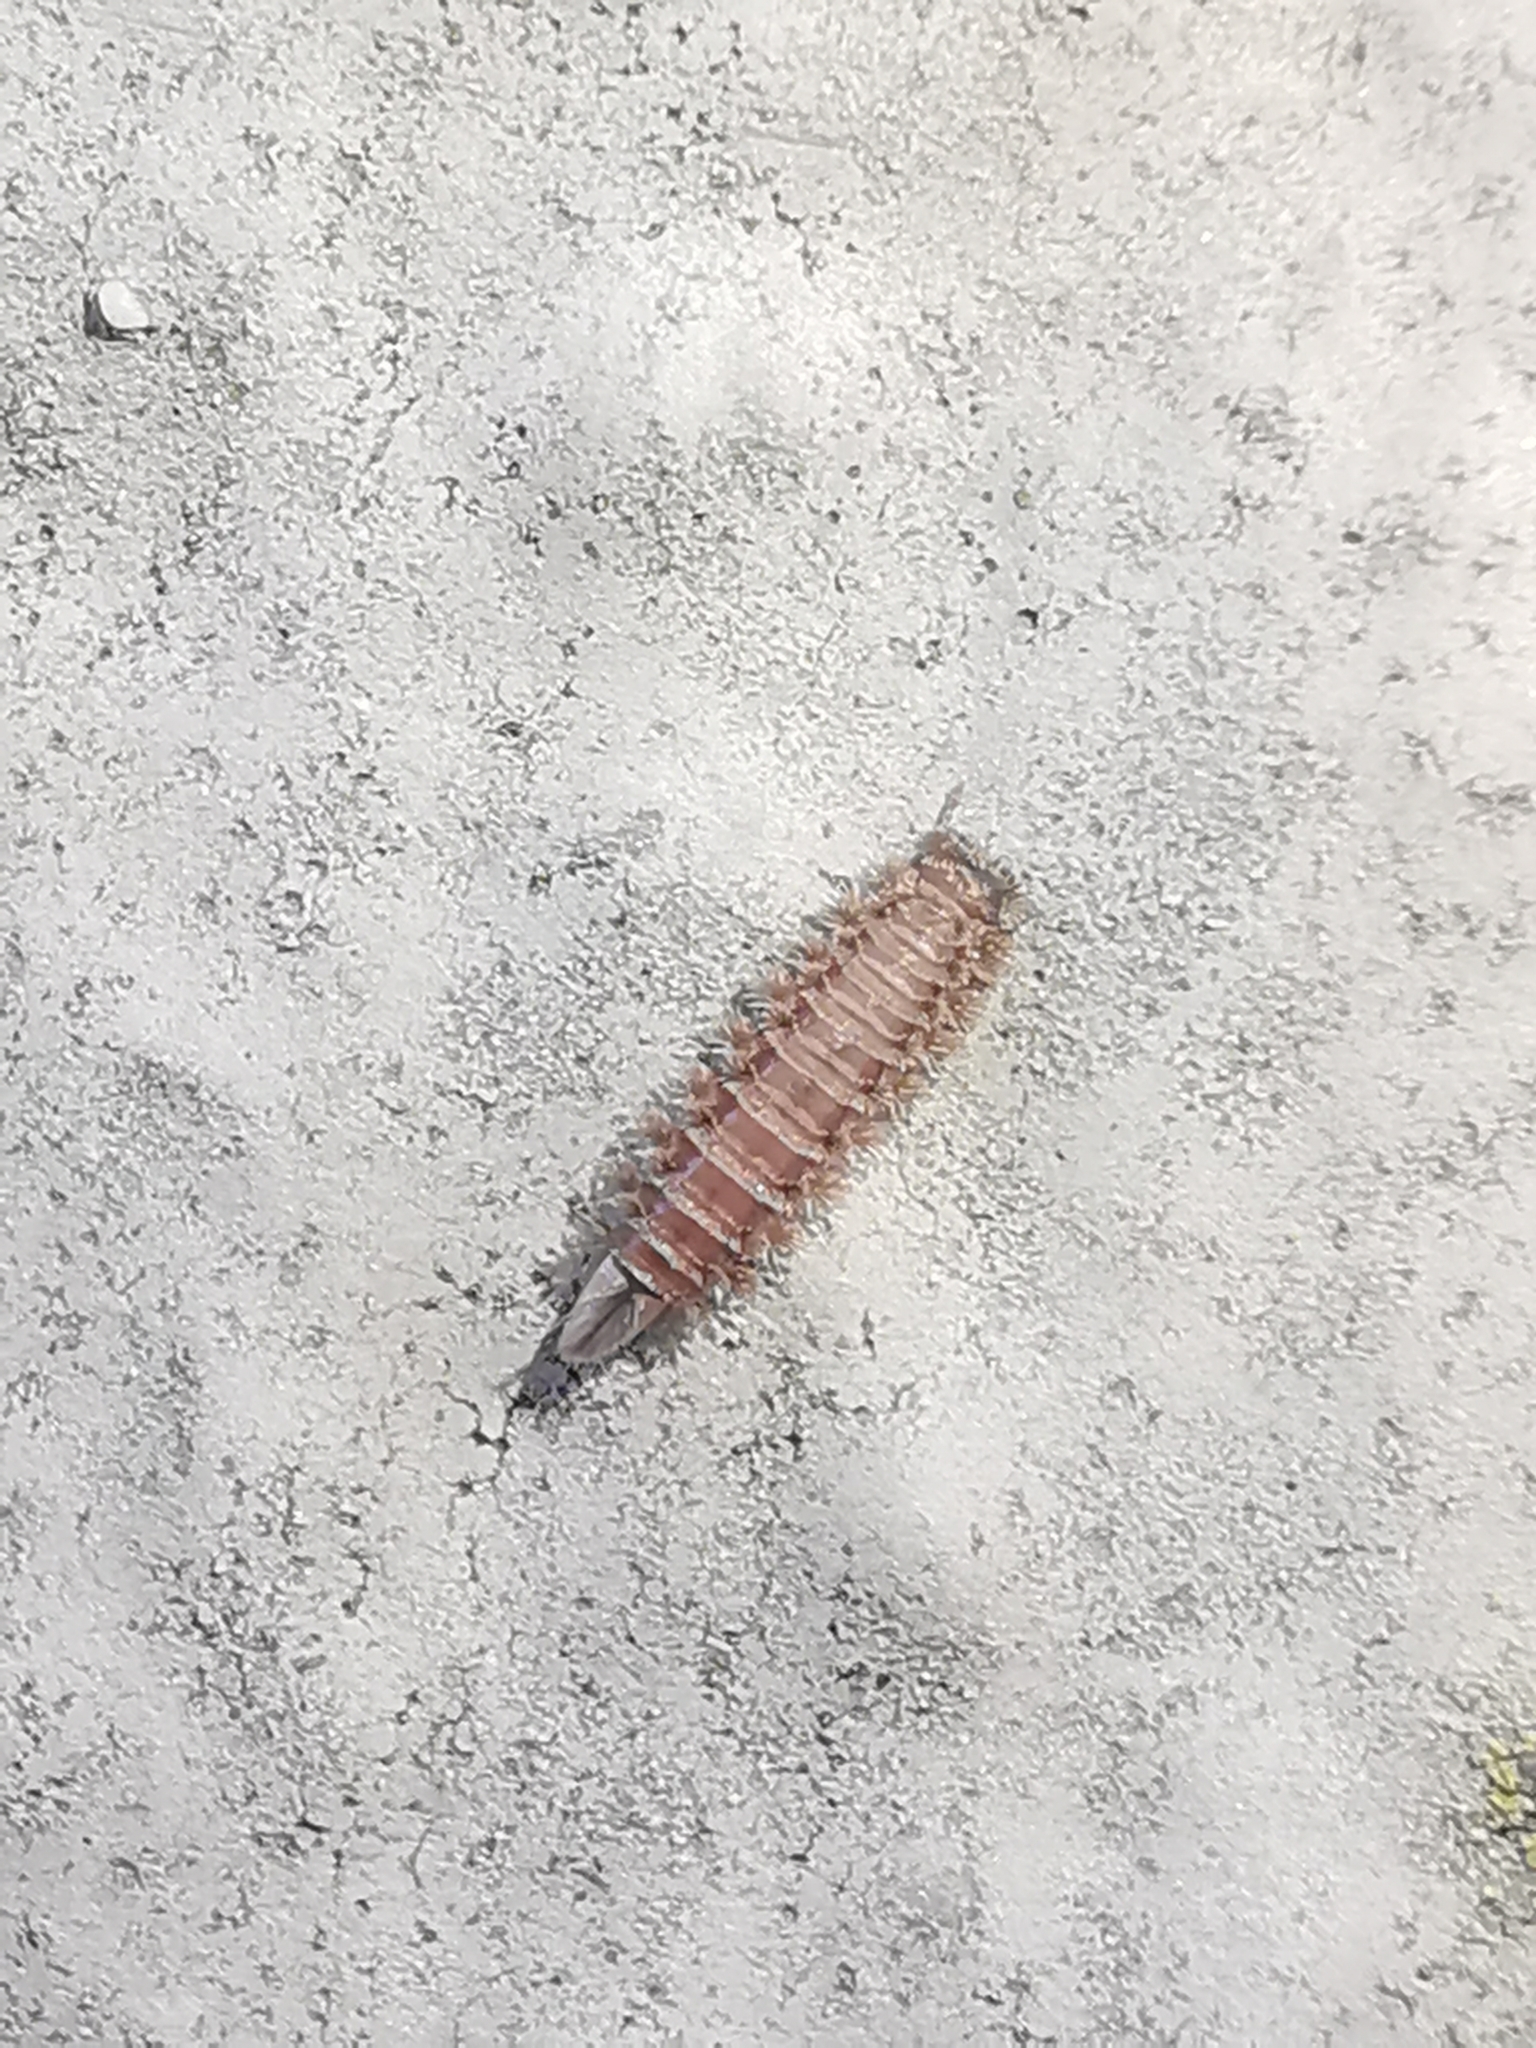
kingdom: Animalia
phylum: Arthropoda
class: Diplopoda
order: Polyxenida
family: Polyxenidae
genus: Polyxenus
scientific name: Polyxenus lagurus
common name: Bristly millipede
